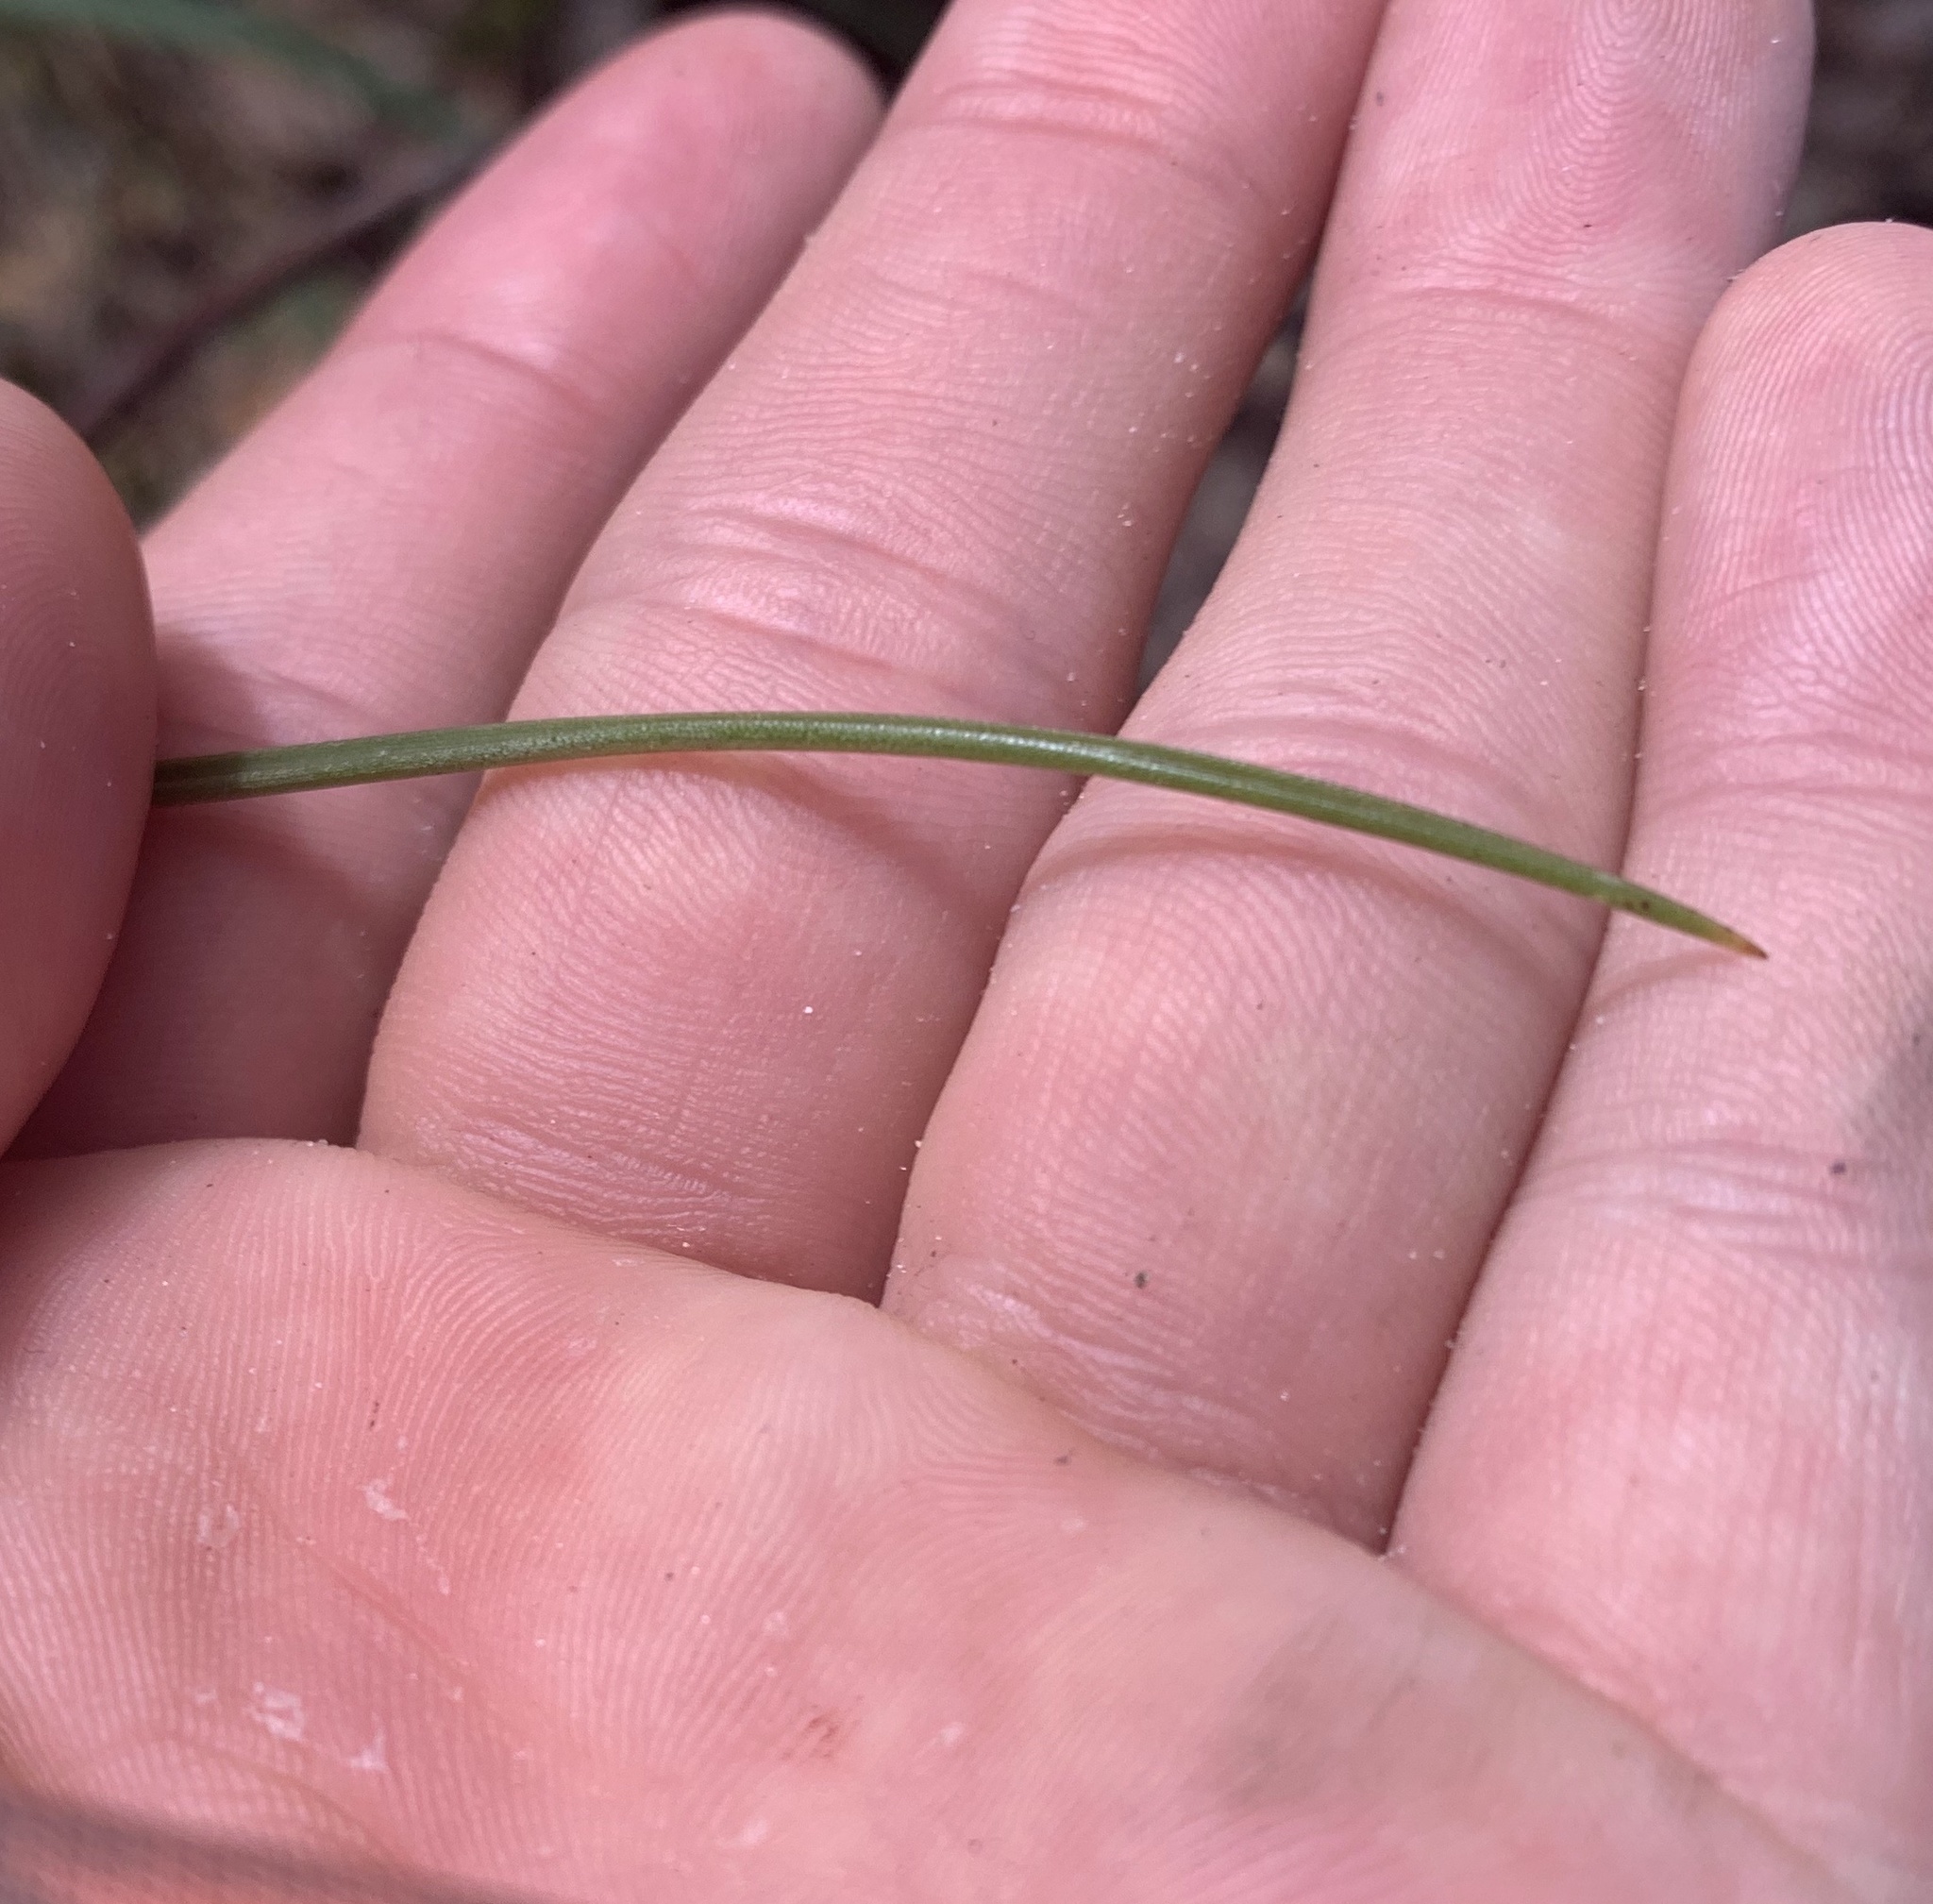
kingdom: Plantae
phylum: Tracheophyta
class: Liliopsida
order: Poales
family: Bromeliaceae
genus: Tillandsia
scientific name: Tillandsia utriculata
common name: Wild pine
